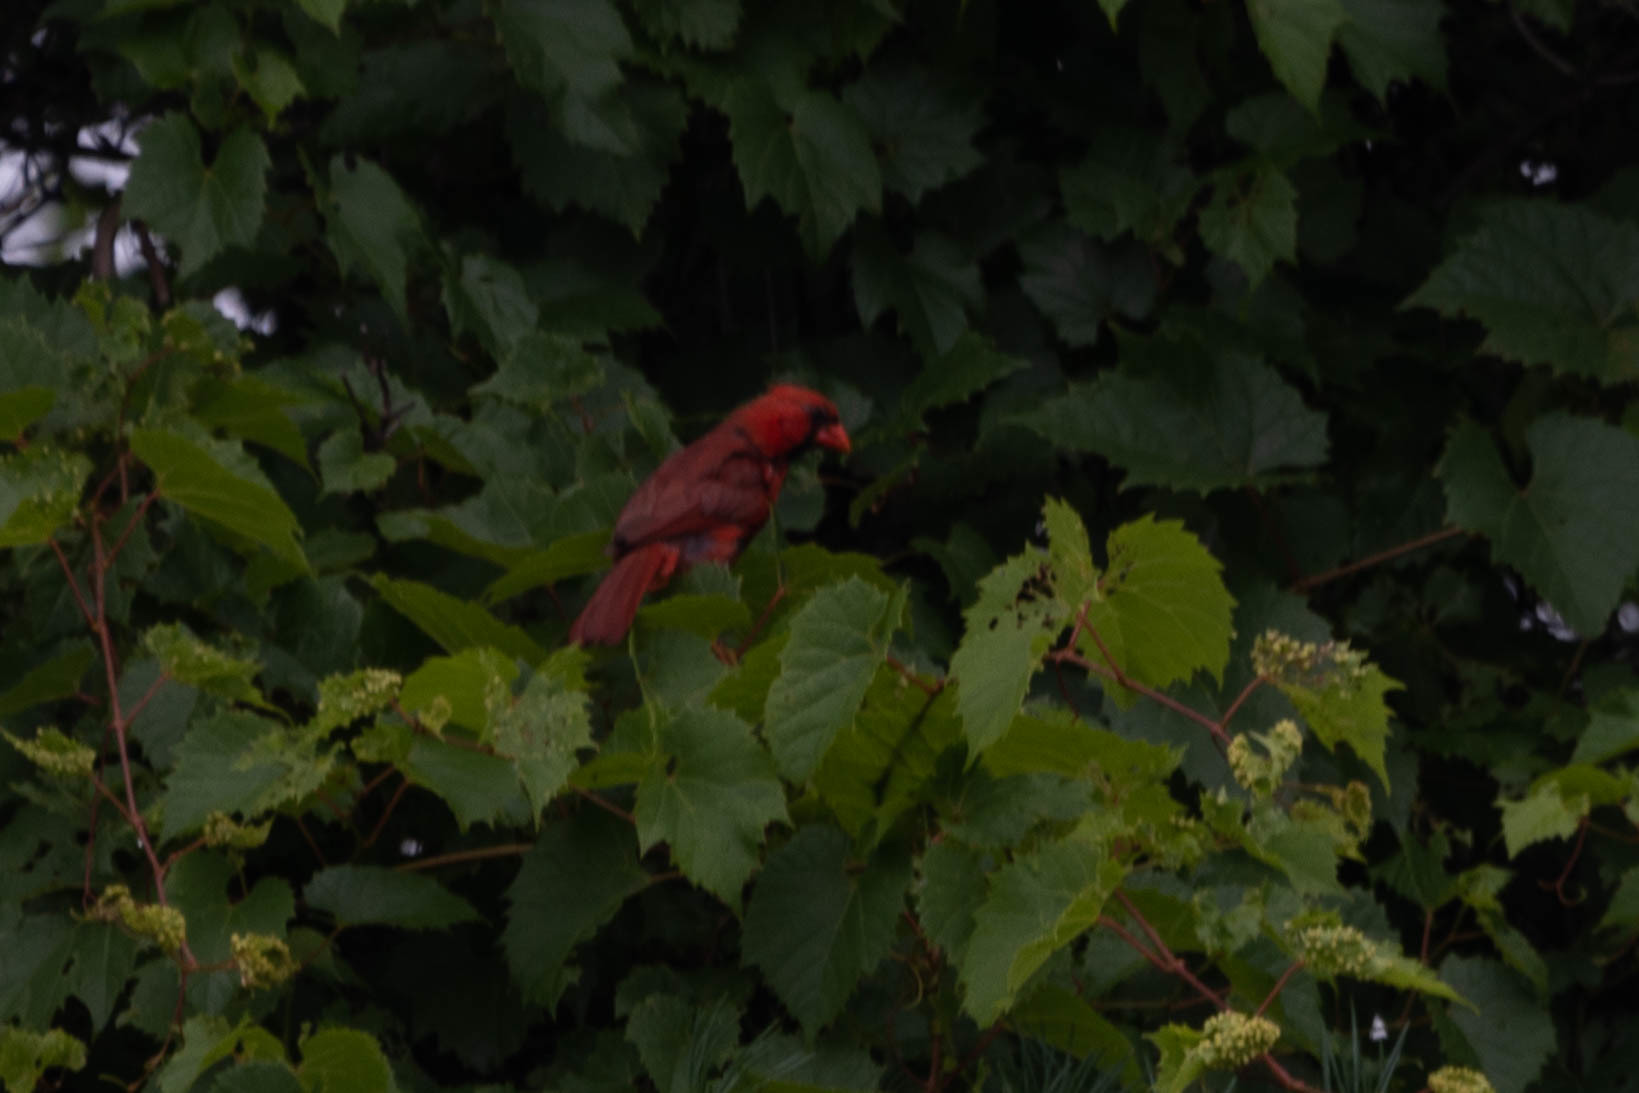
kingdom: Animalia
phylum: Chordata
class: Aves
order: Passeriformes
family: Cardinalidae
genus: Cardinalis
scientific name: Cardinalis cardinalis
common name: Northern cardinal
